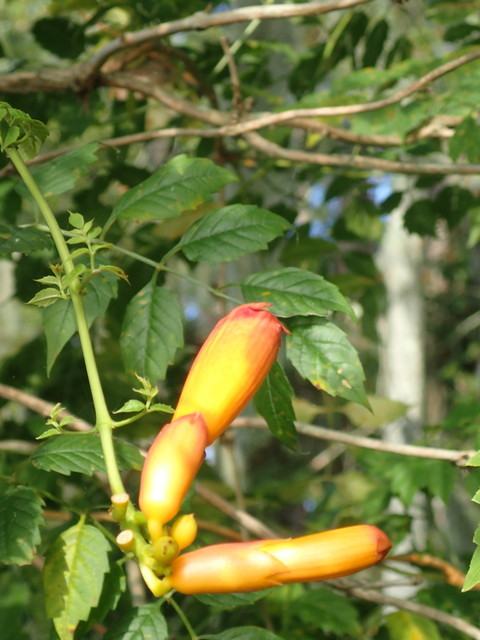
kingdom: Plantae
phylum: Tracheophyta
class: Magnoliopsida
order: Lamiales
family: Bignoniaceae
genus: Campsis
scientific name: Campsis radicans
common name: Trumpet-creeper
